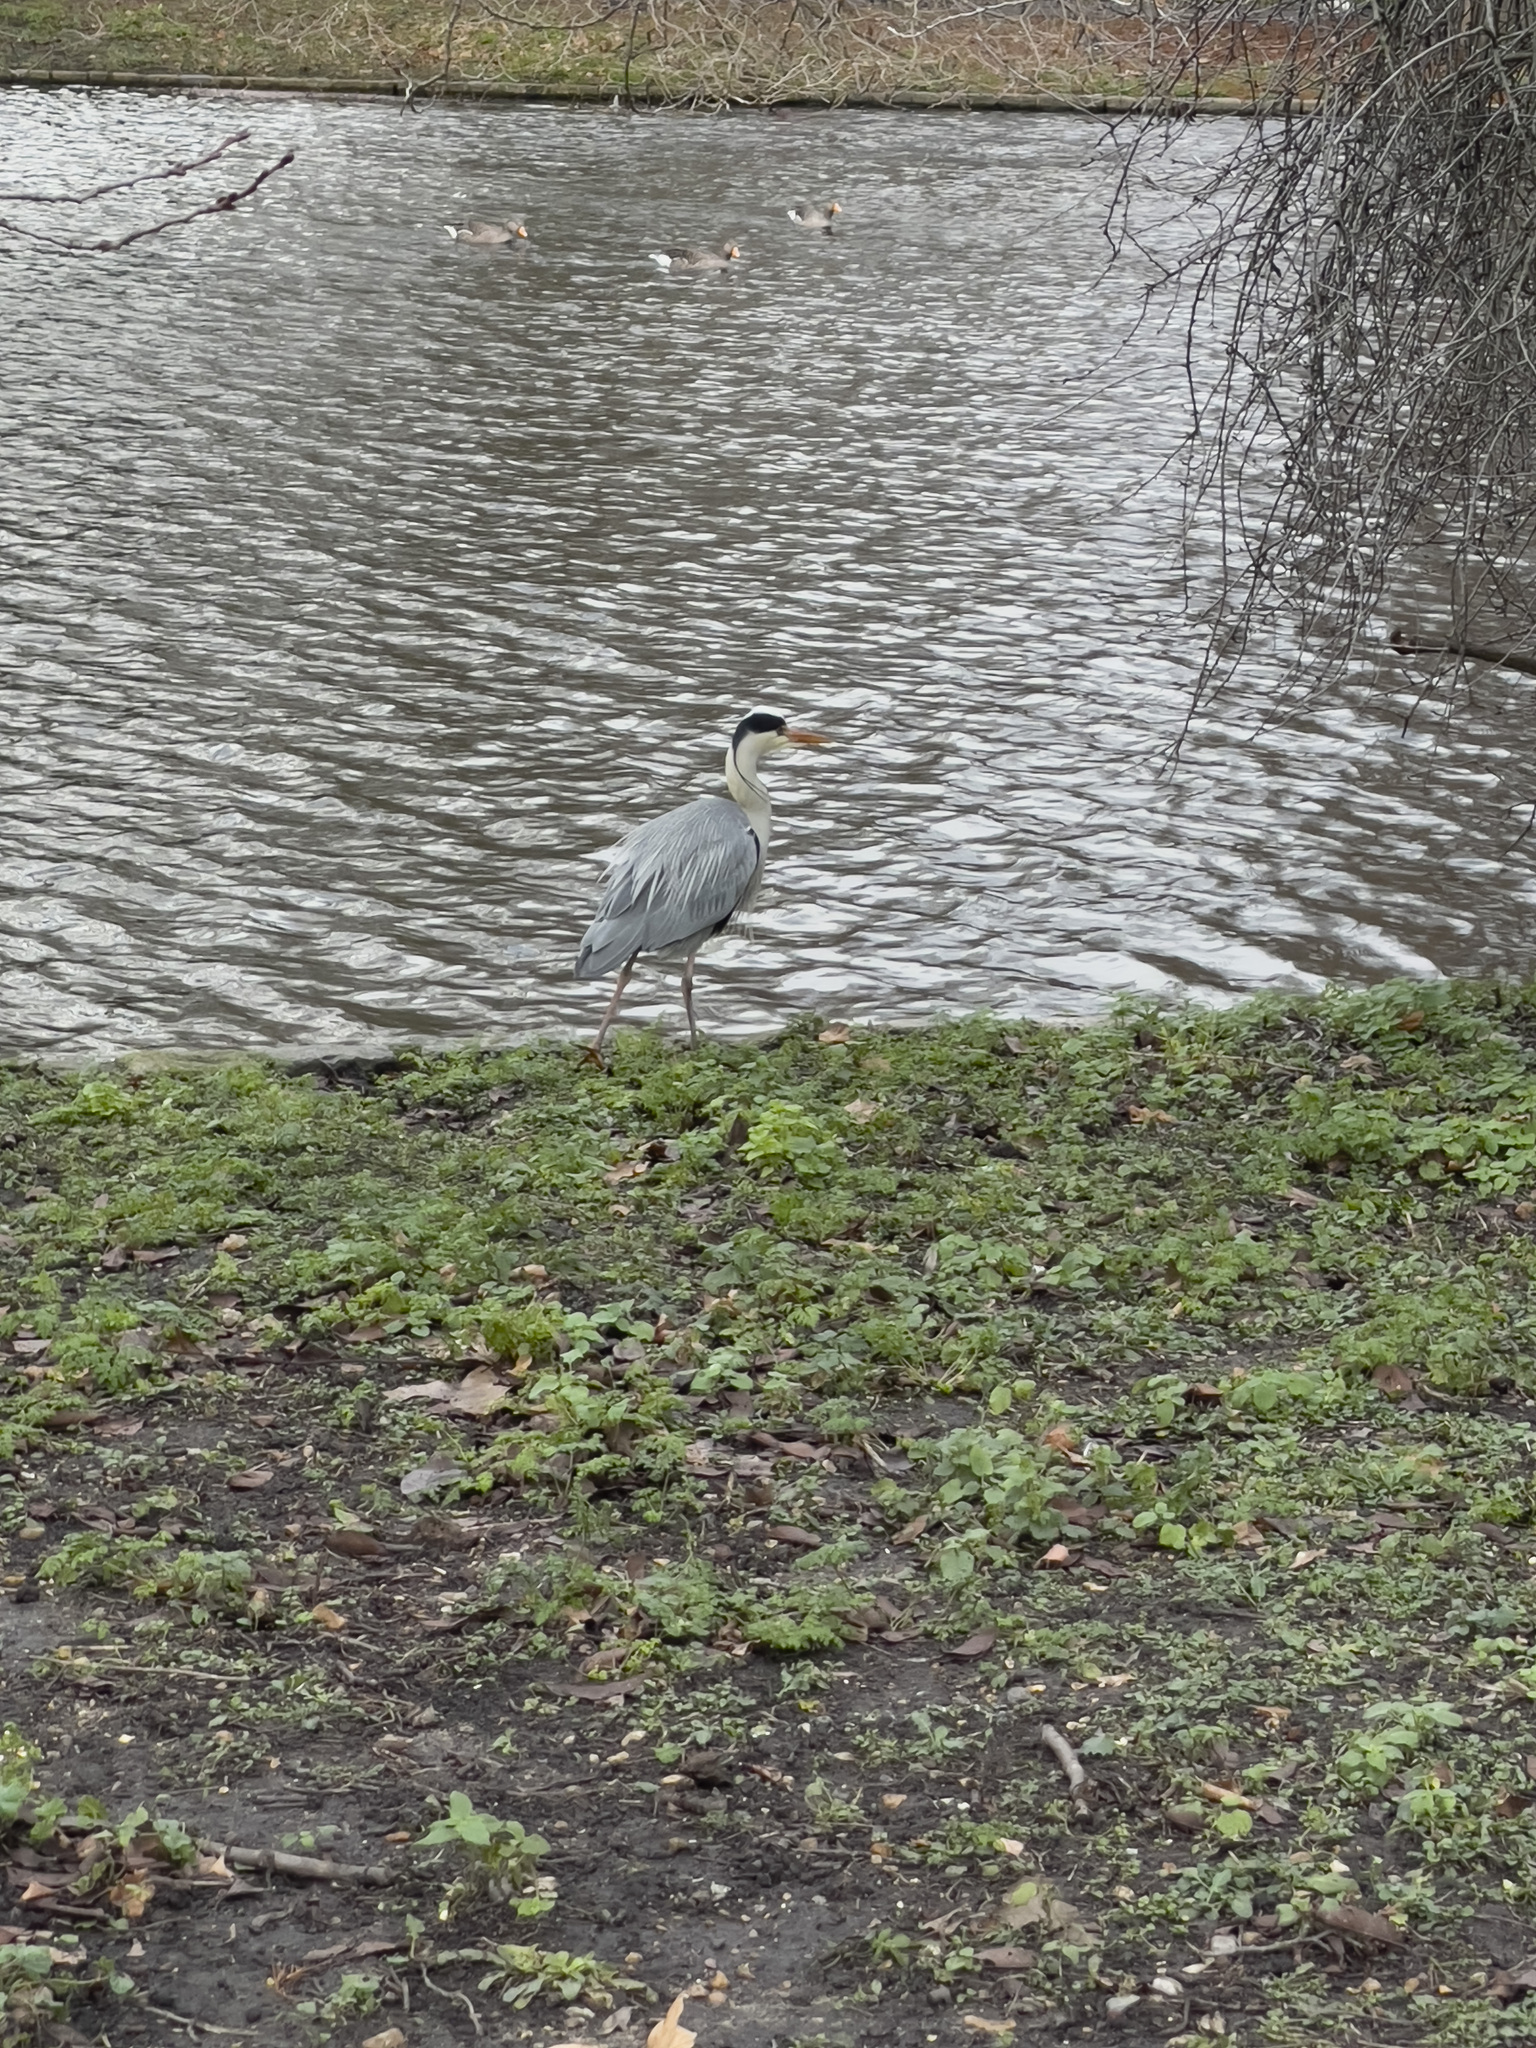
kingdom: Animalia
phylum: Chordata
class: Aves
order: Pelecaniformes
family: Ardeidae
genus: Ardea
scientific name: Ardea cinerea
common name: Grey heron
